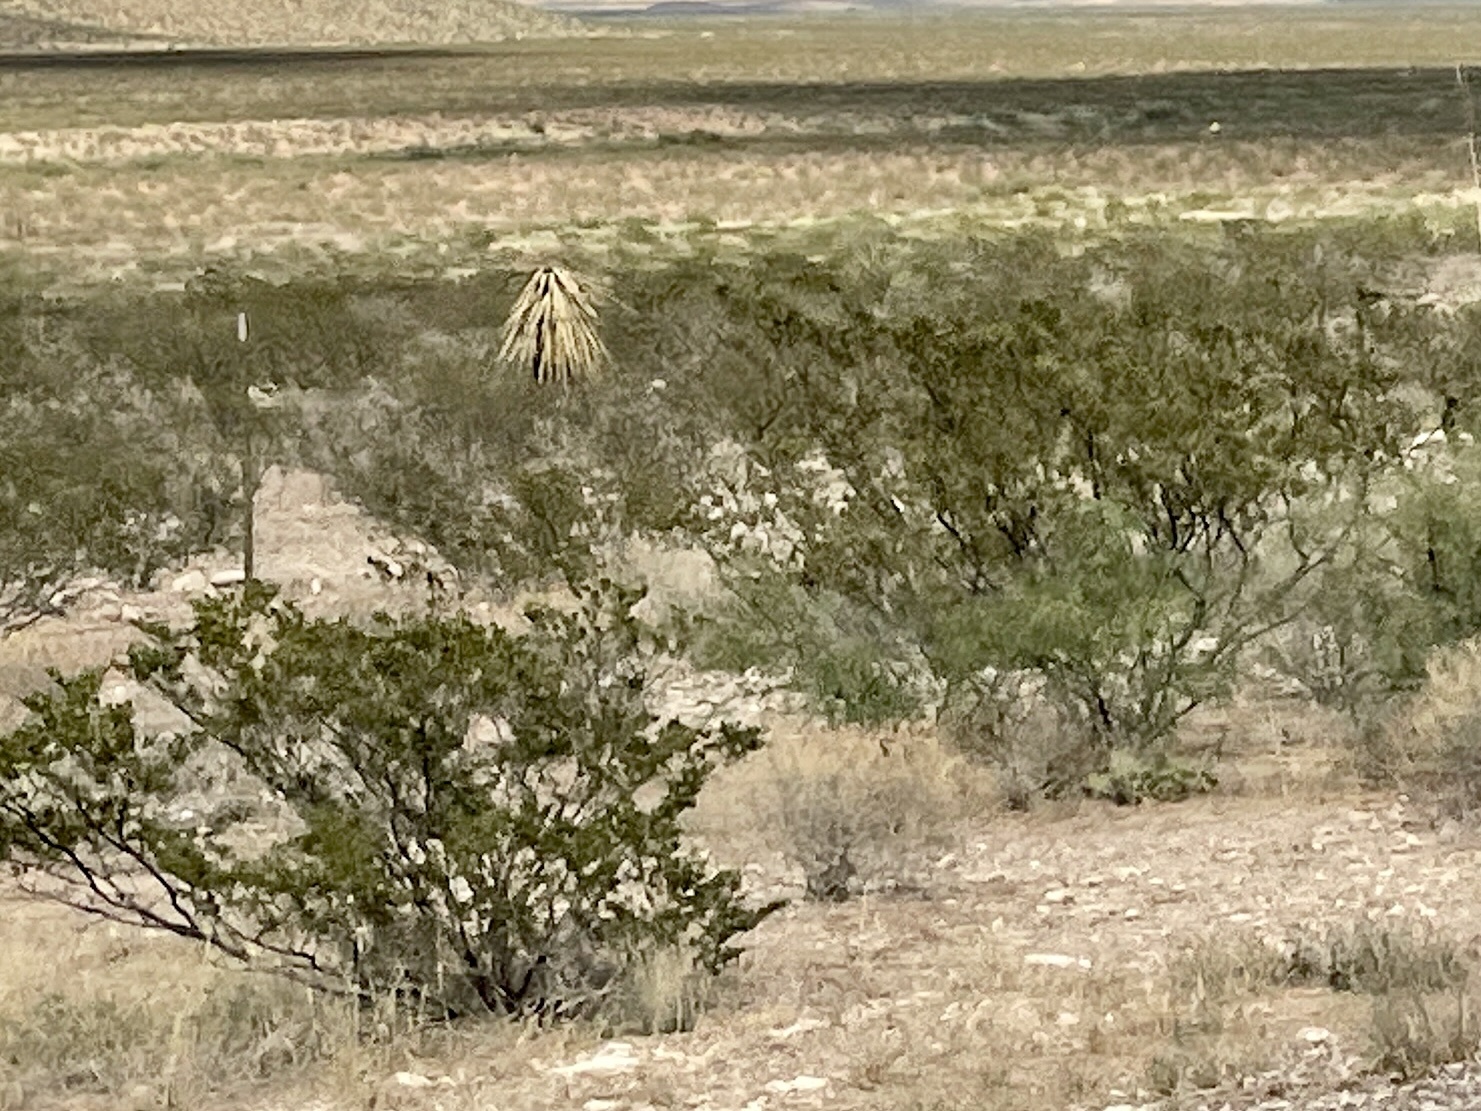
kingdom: Plantae
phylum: Tracheophyta
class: Magnoliopsida
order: Zygophyllales
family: Zygophyllaceae
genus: Larrea
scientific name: Larrea tridentata
